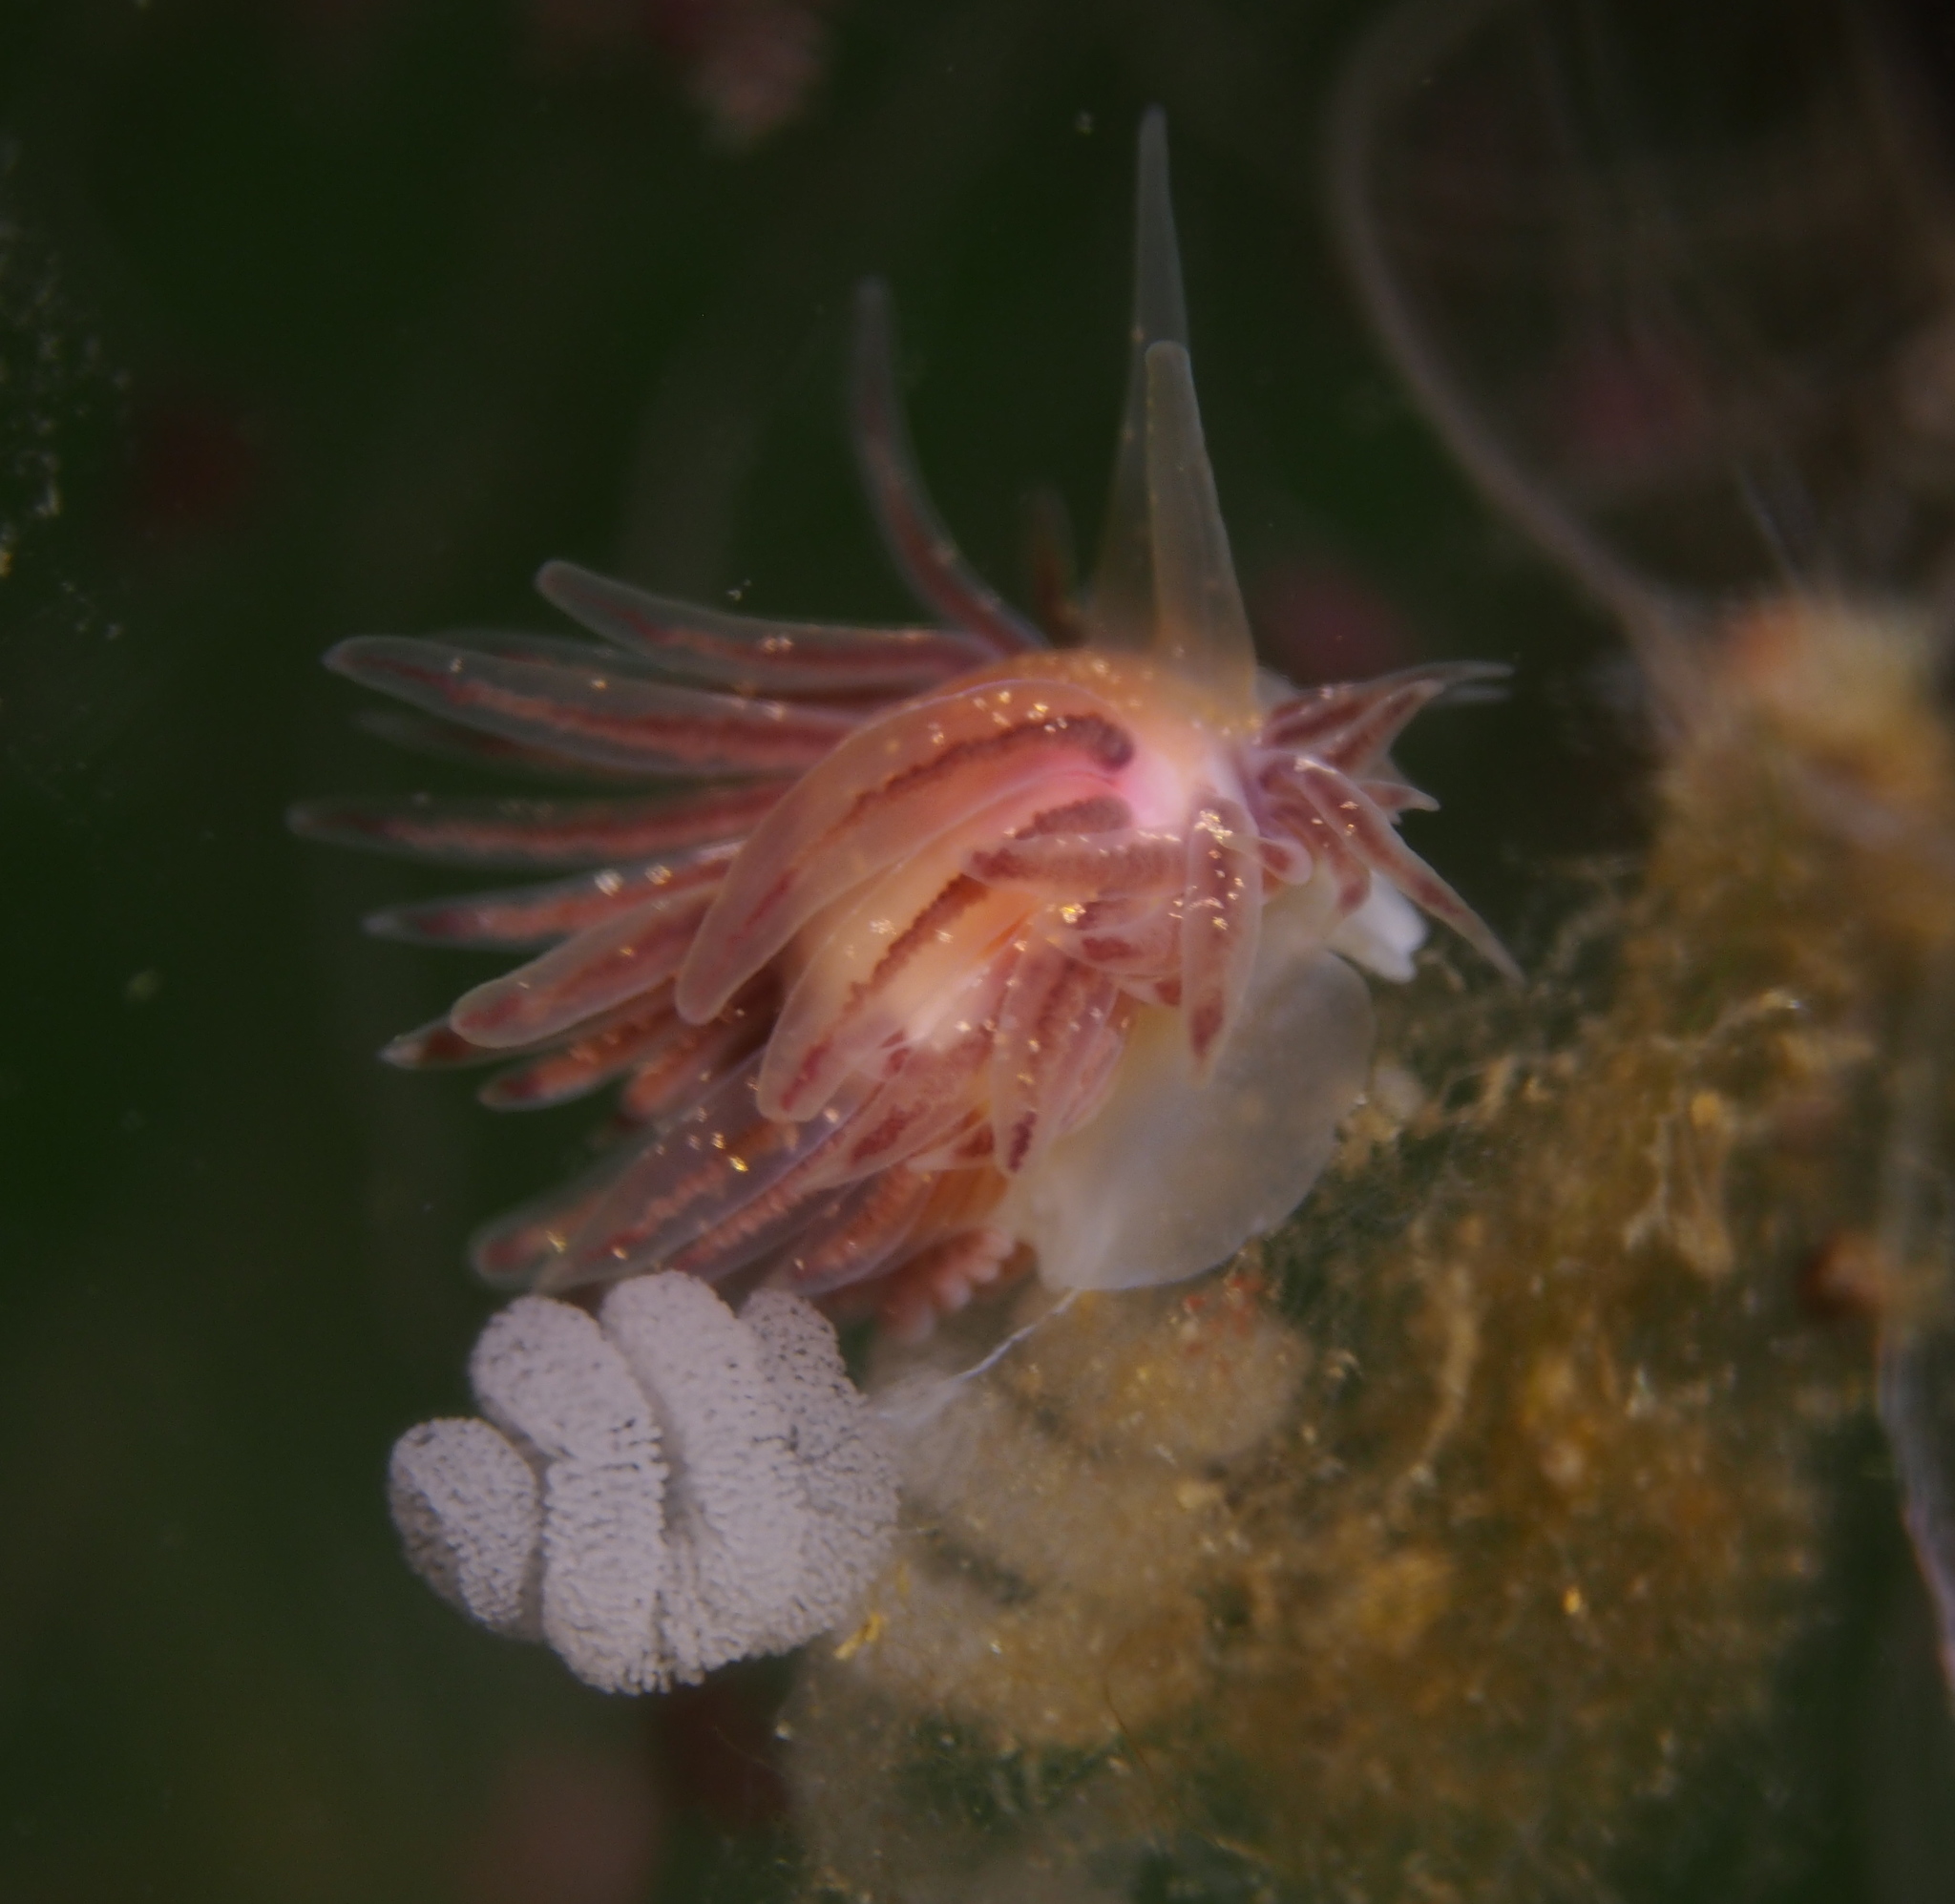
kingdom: Animalia
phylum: Mollusca
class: Gastropoda
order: Nudibranchia
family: Cumanotidae
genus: Cumanotus
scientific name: Cumanotus beaumonti
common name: Polyp aeolis
